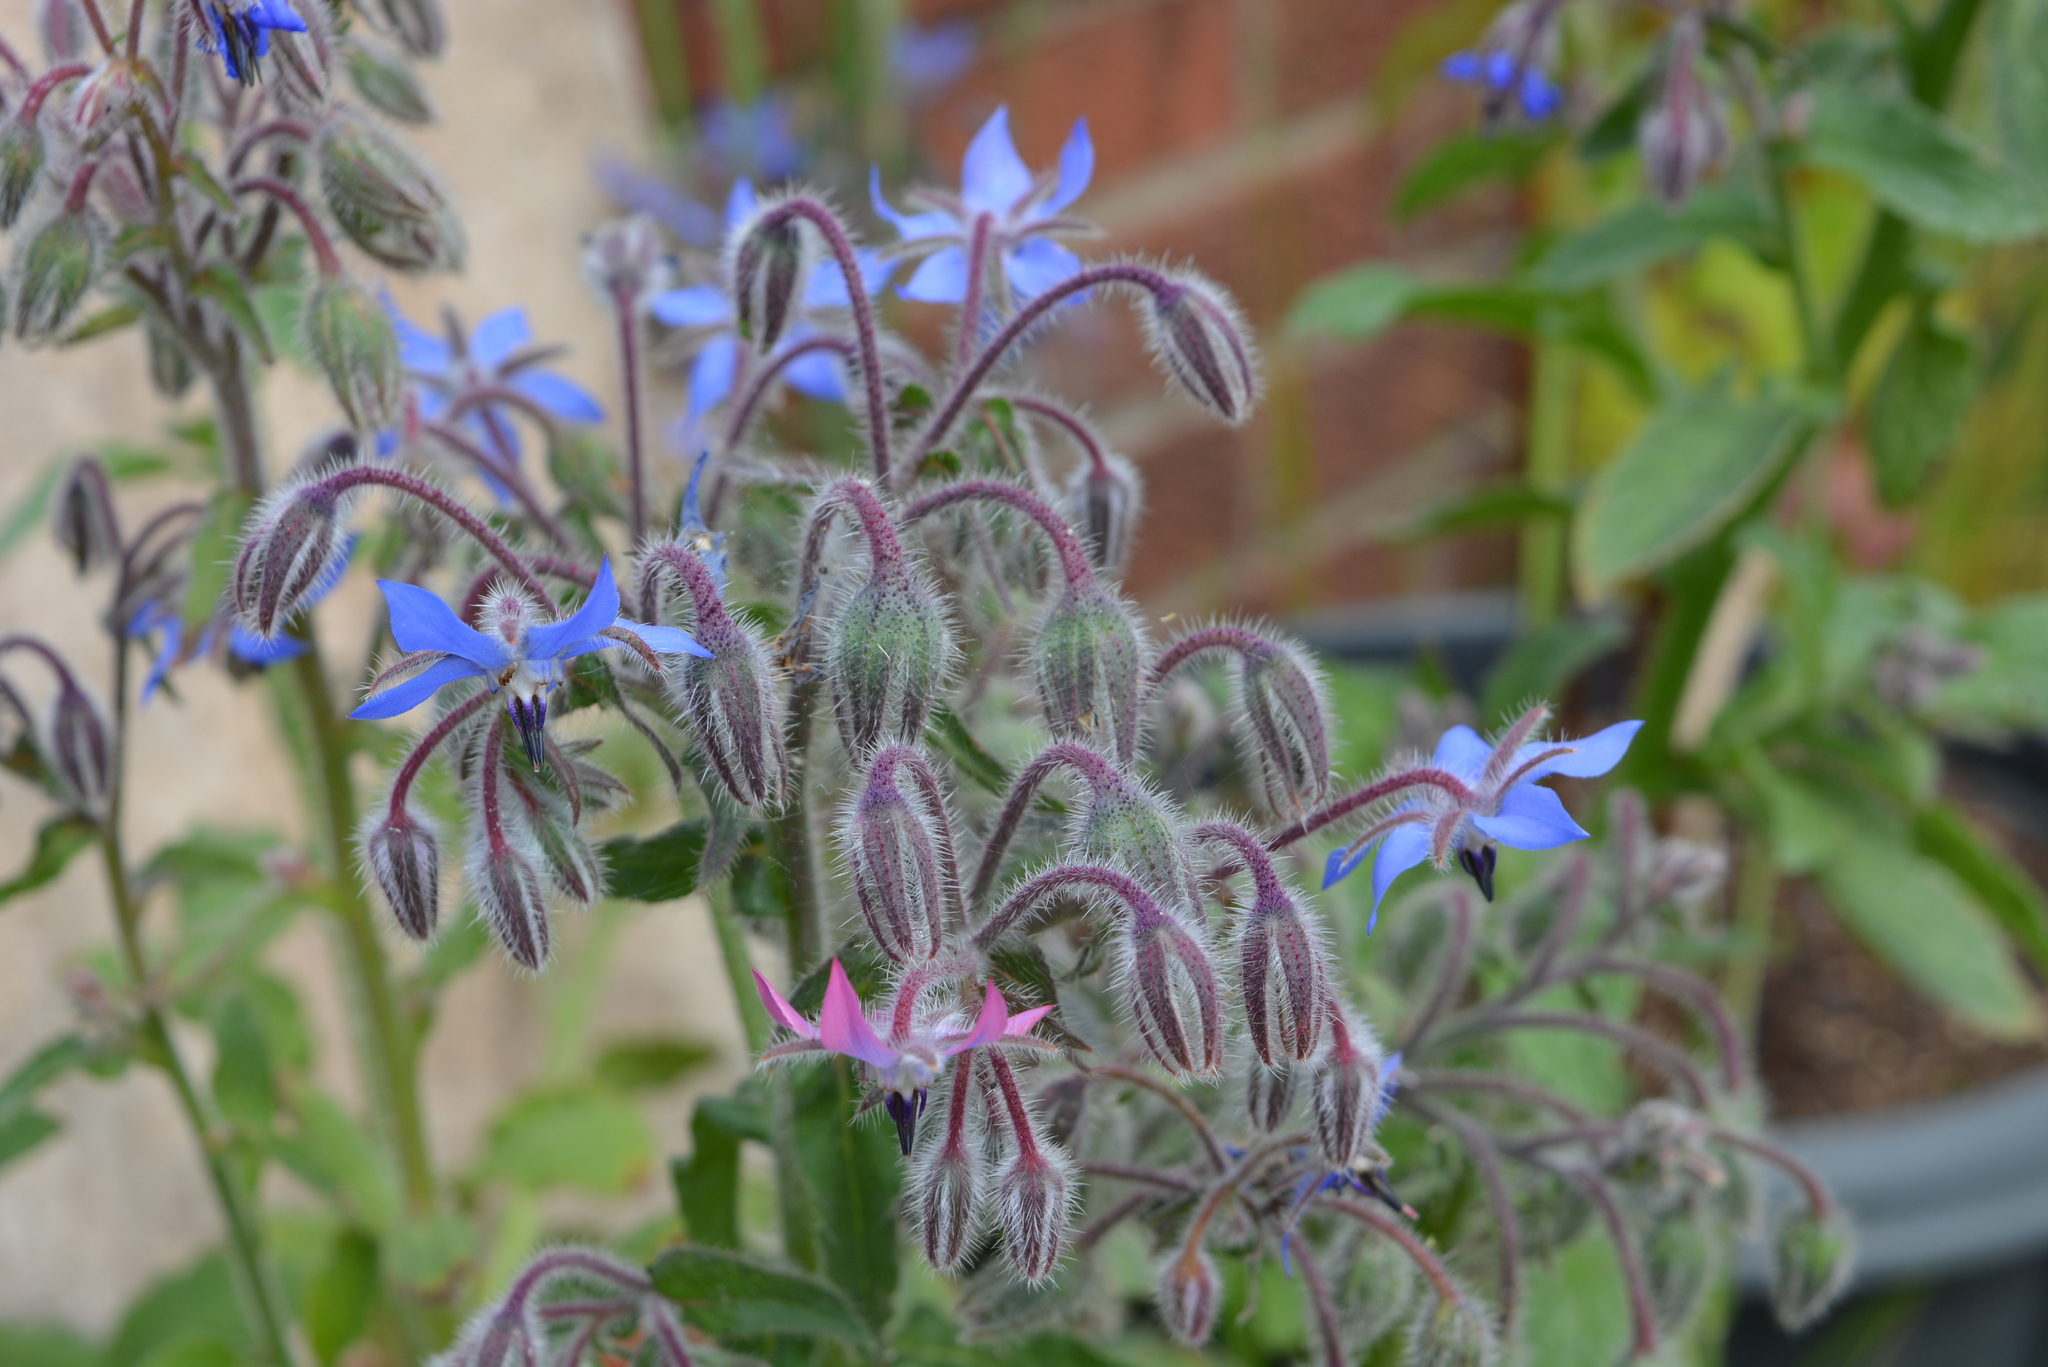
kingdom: Plantae
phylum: Tracheophyta
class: Magnoliopsida
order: Boraginales
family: Boraginaceae
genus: Borago
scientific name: Borago officinalis
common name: Borage
